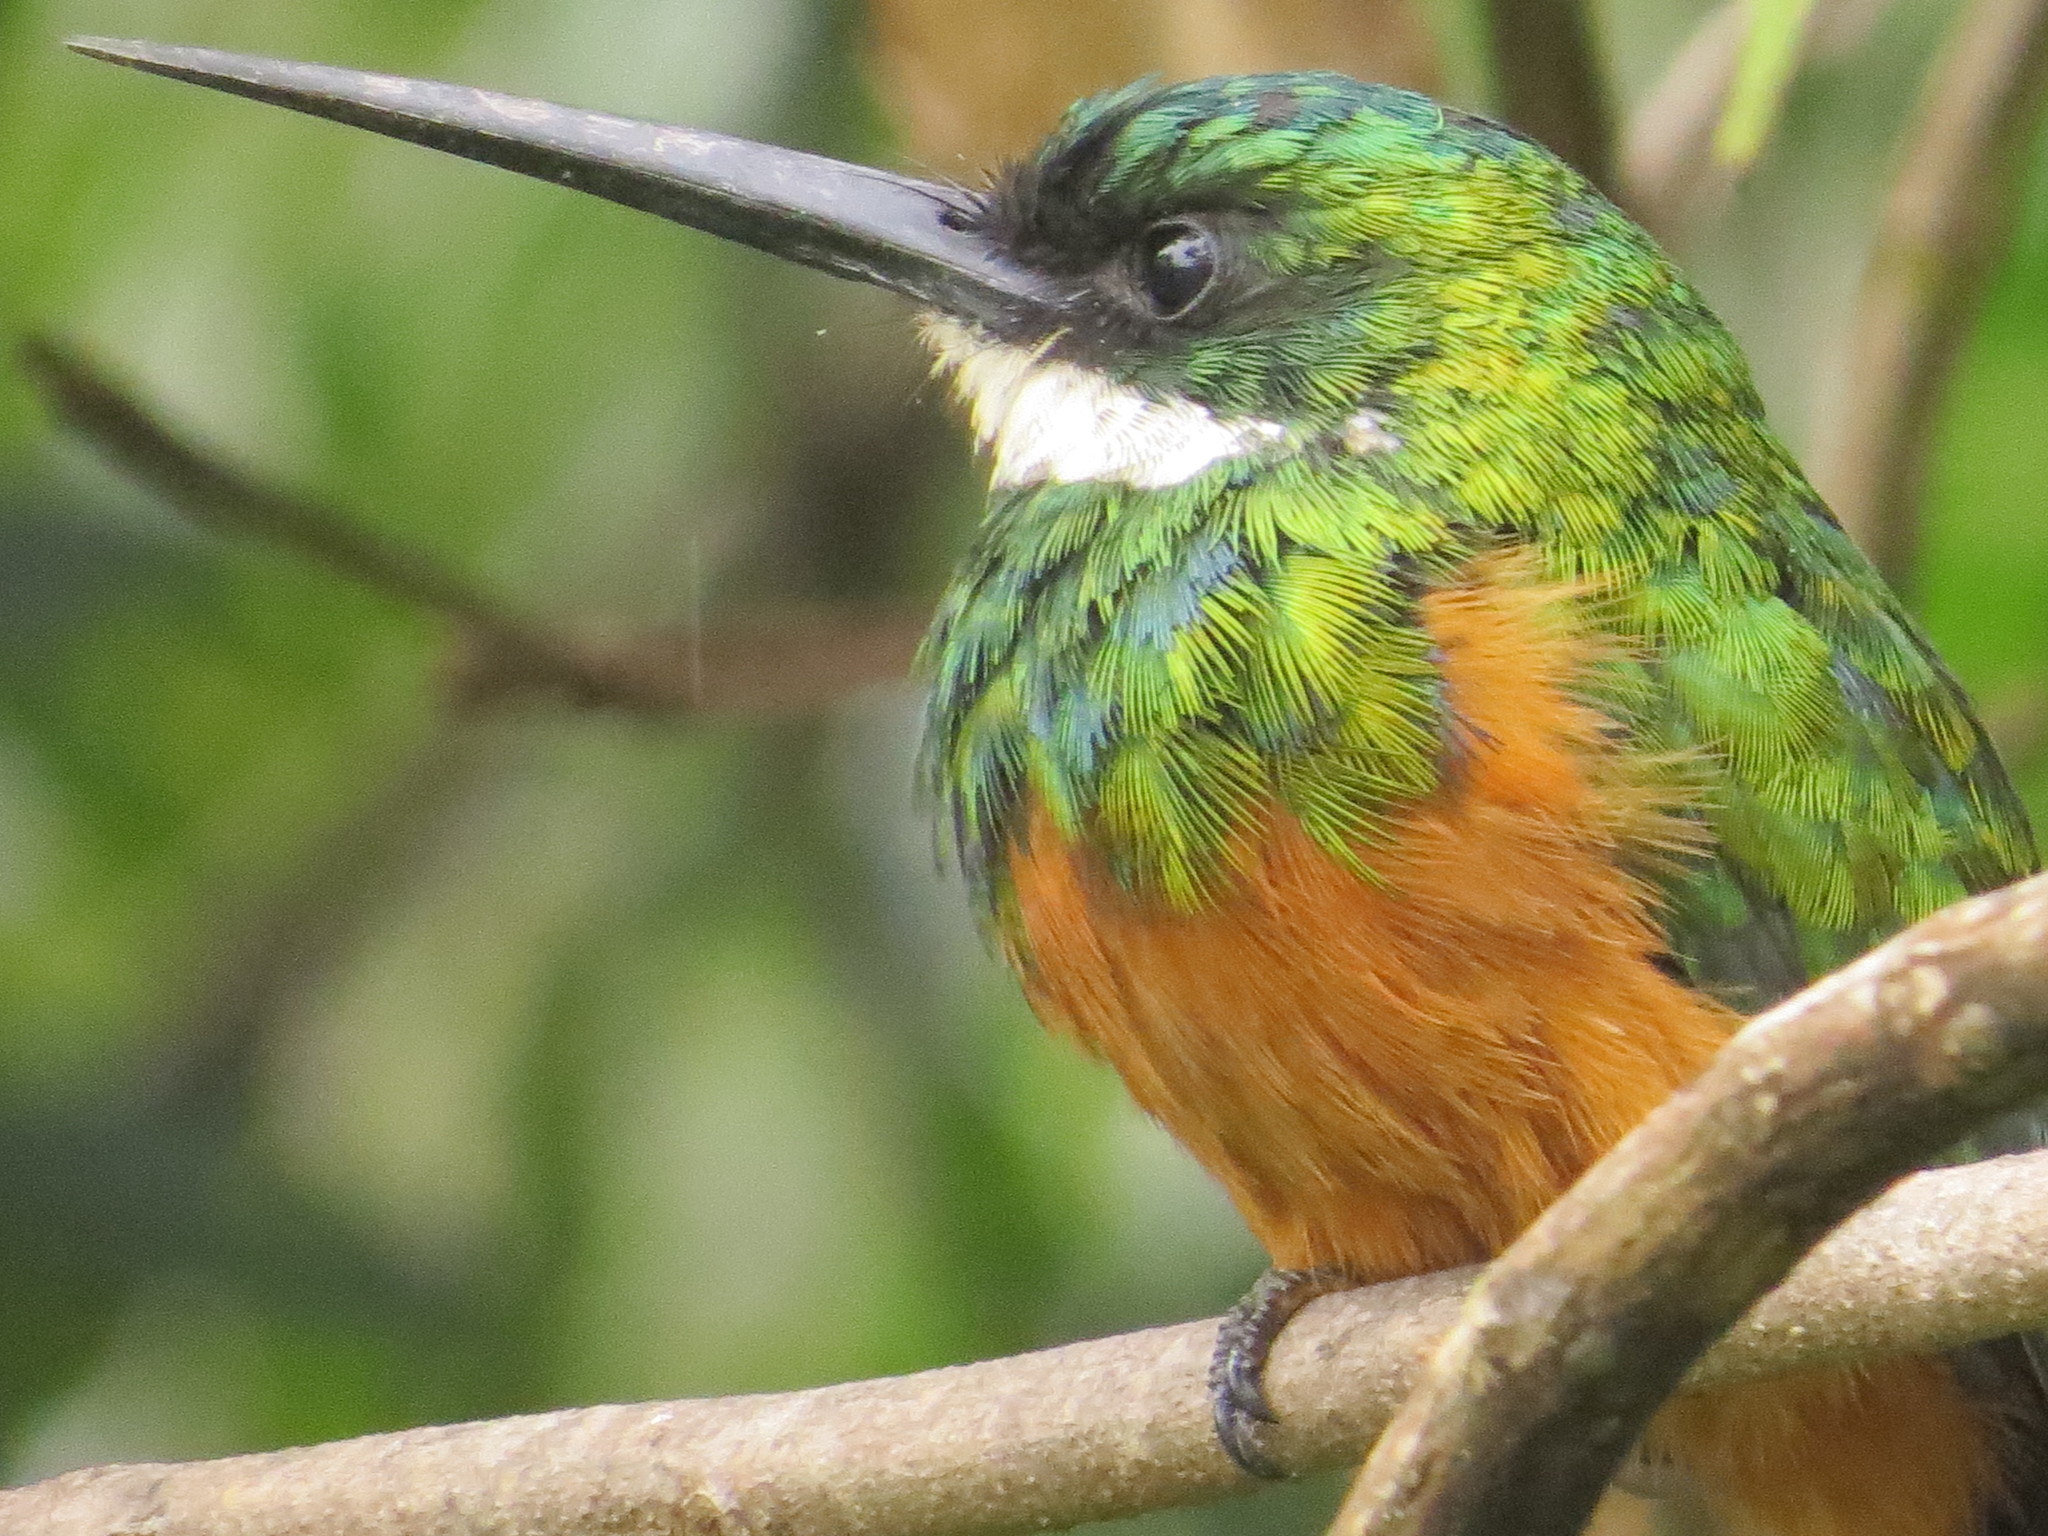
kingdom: Animalia
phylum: Chordata
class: Aves
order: Piciformes
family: Galbulidae
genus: Galbula
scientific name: Galbula ruficauda
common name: Rufous-tailed jacamar
